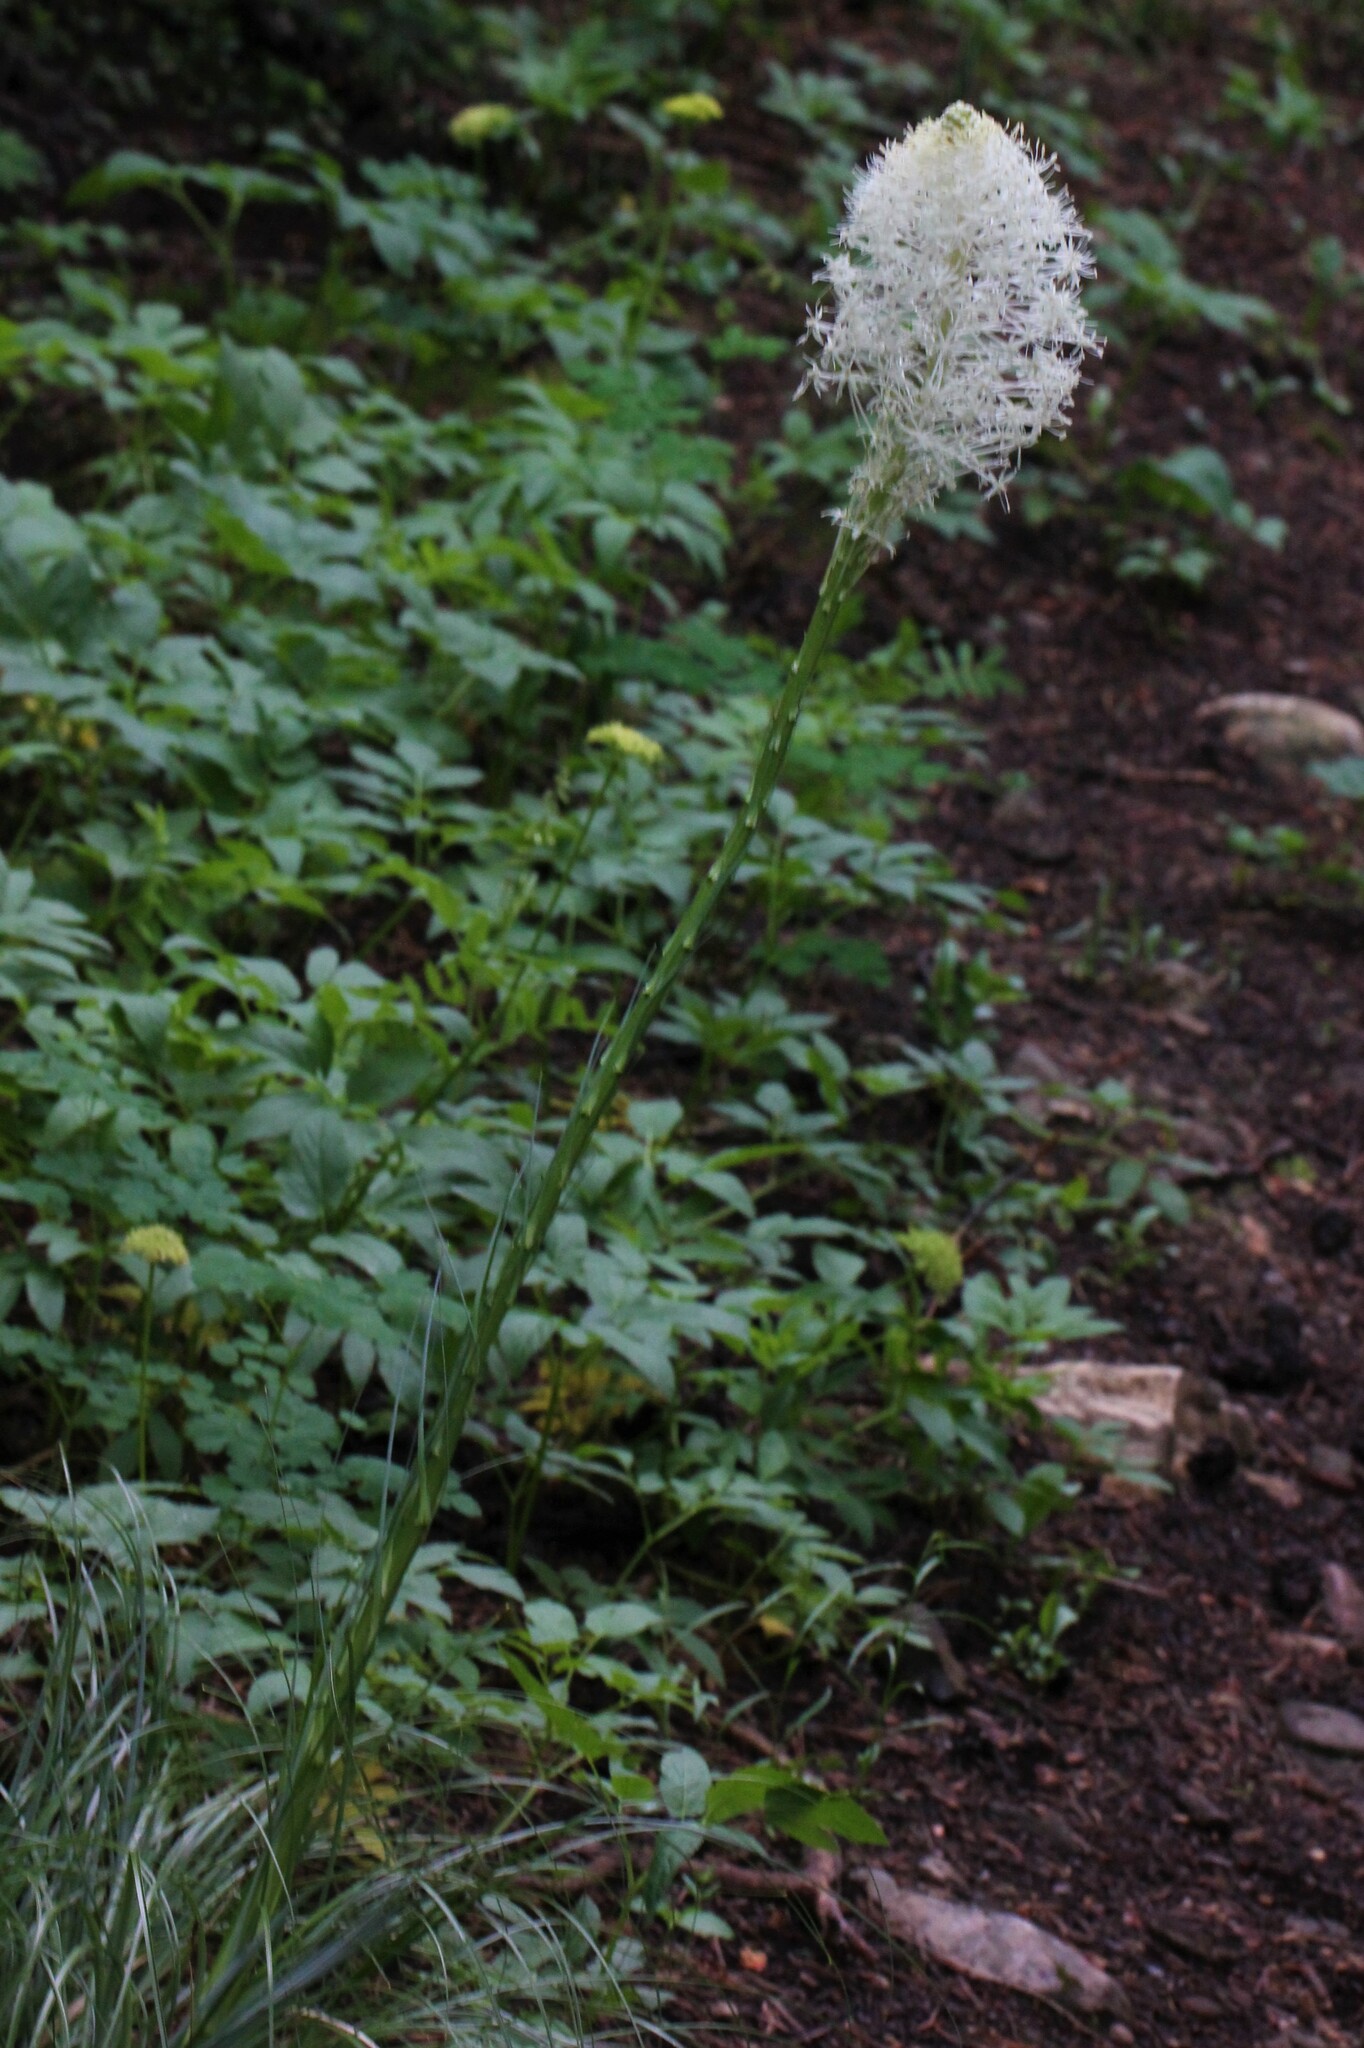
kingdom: Plantae
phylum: Tracheophyta
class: Liliopsida
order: Liliales
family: Melanthiaceae
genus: Xerophyllum
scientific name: Xerophyllum tenax
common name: Bear-grass
